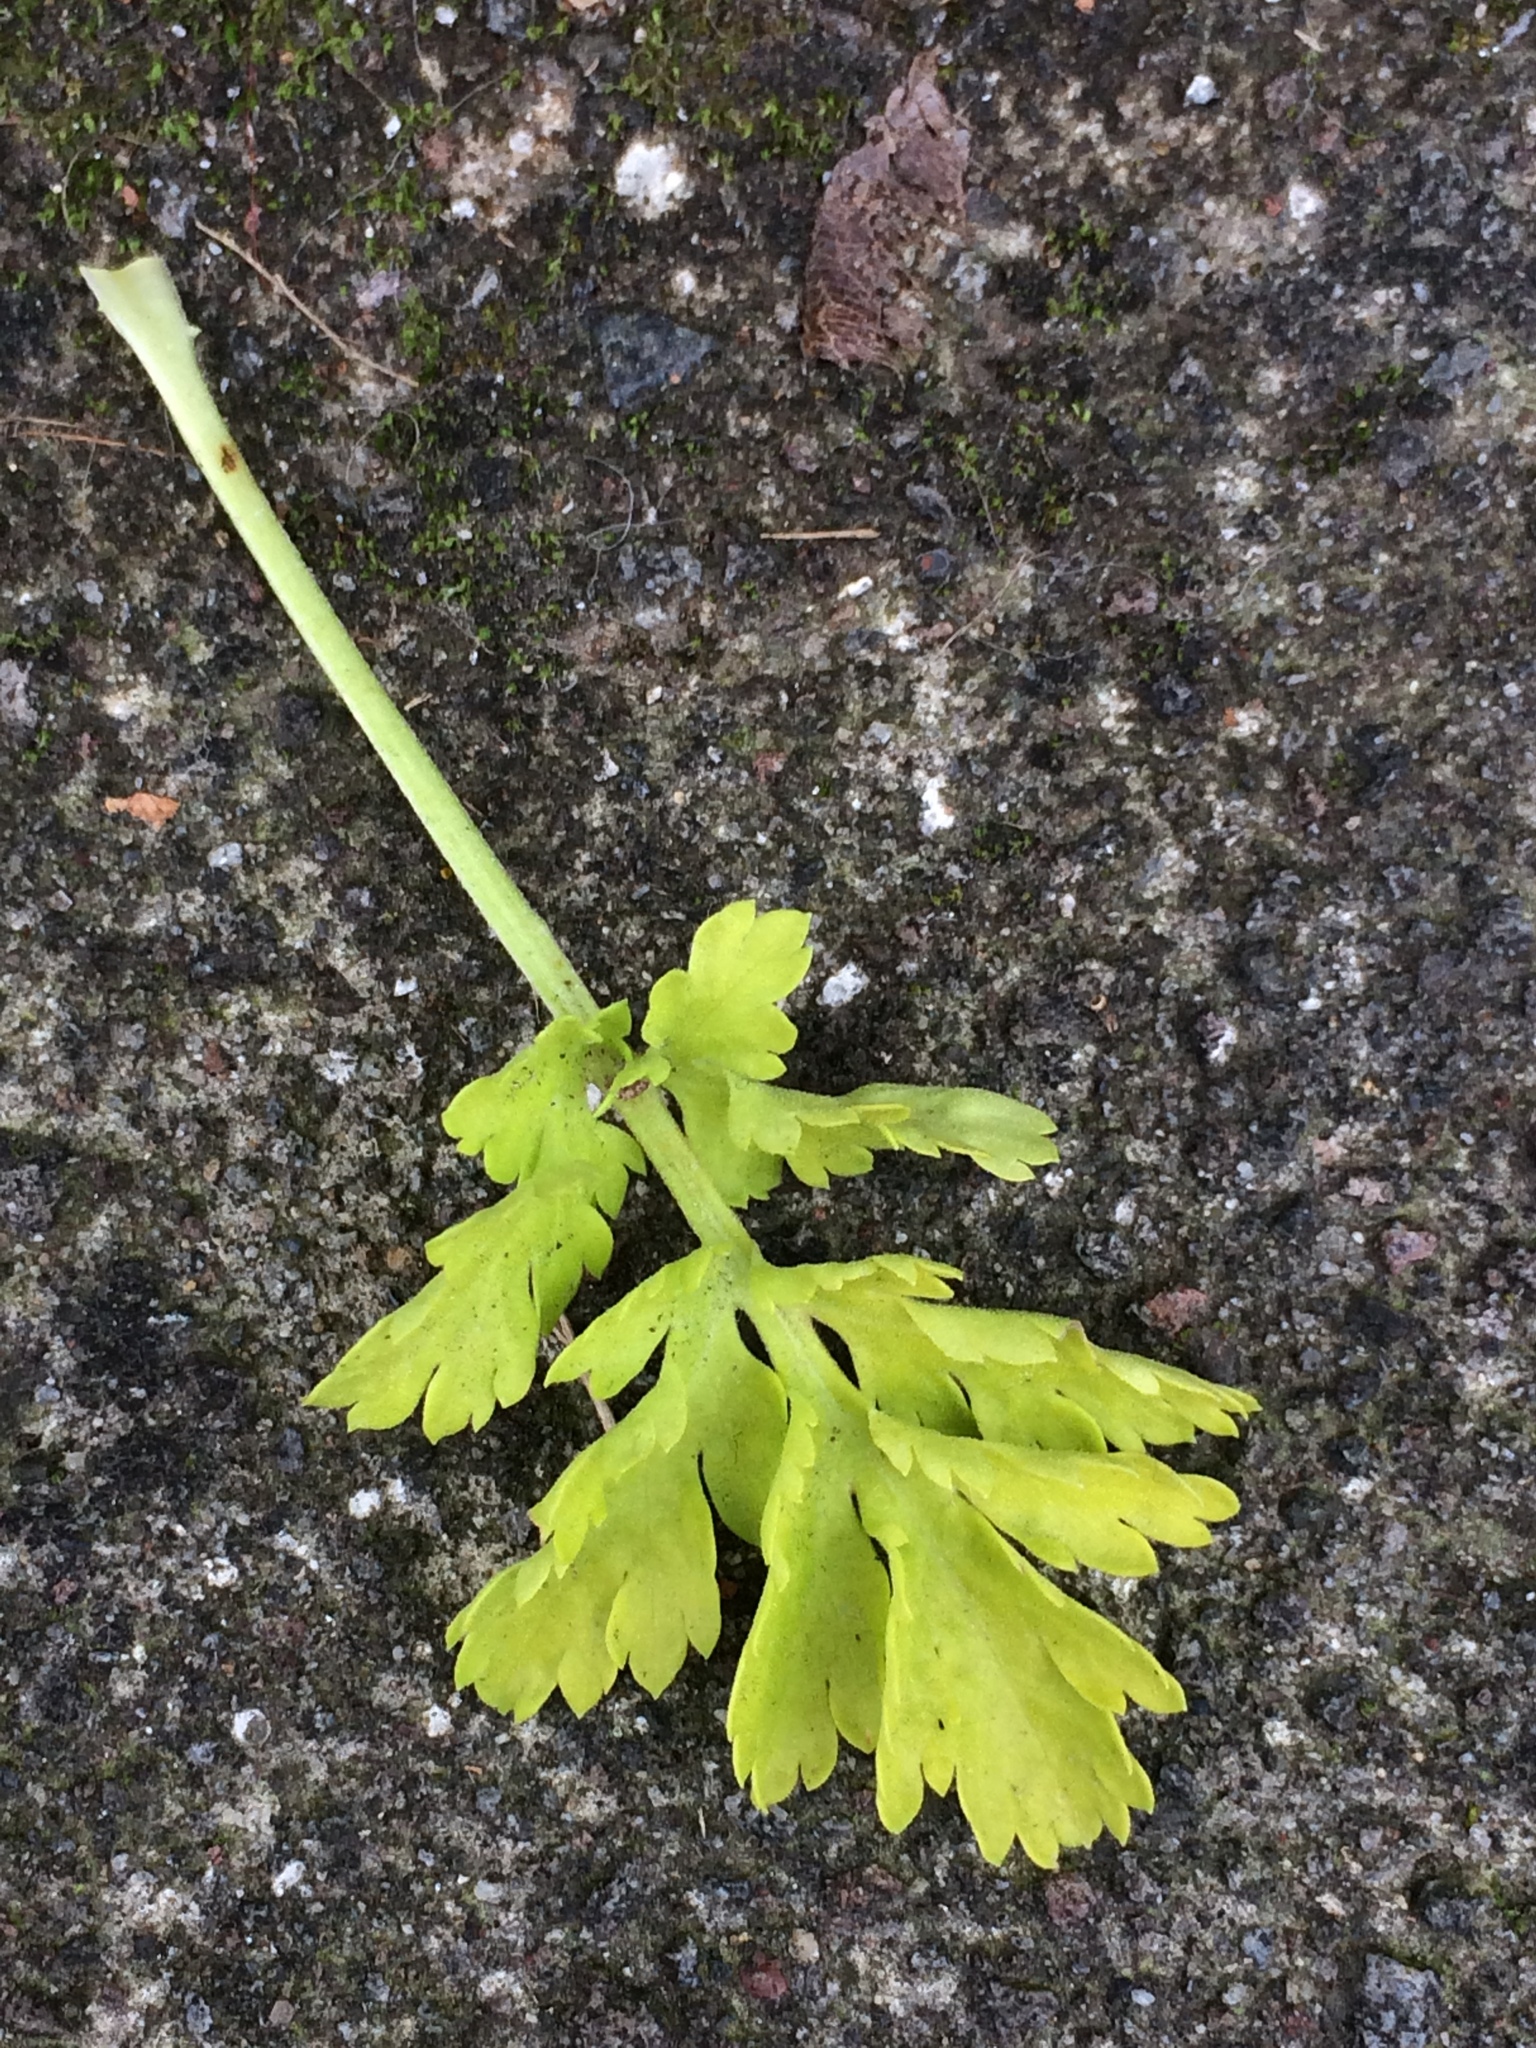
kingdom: Plantae
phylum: Tracheophyta
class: Magnoliopsida
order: Asterales
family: Asteraceae
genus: Tanacetum
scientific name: Tanacetum parthenium
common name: Feverfew
